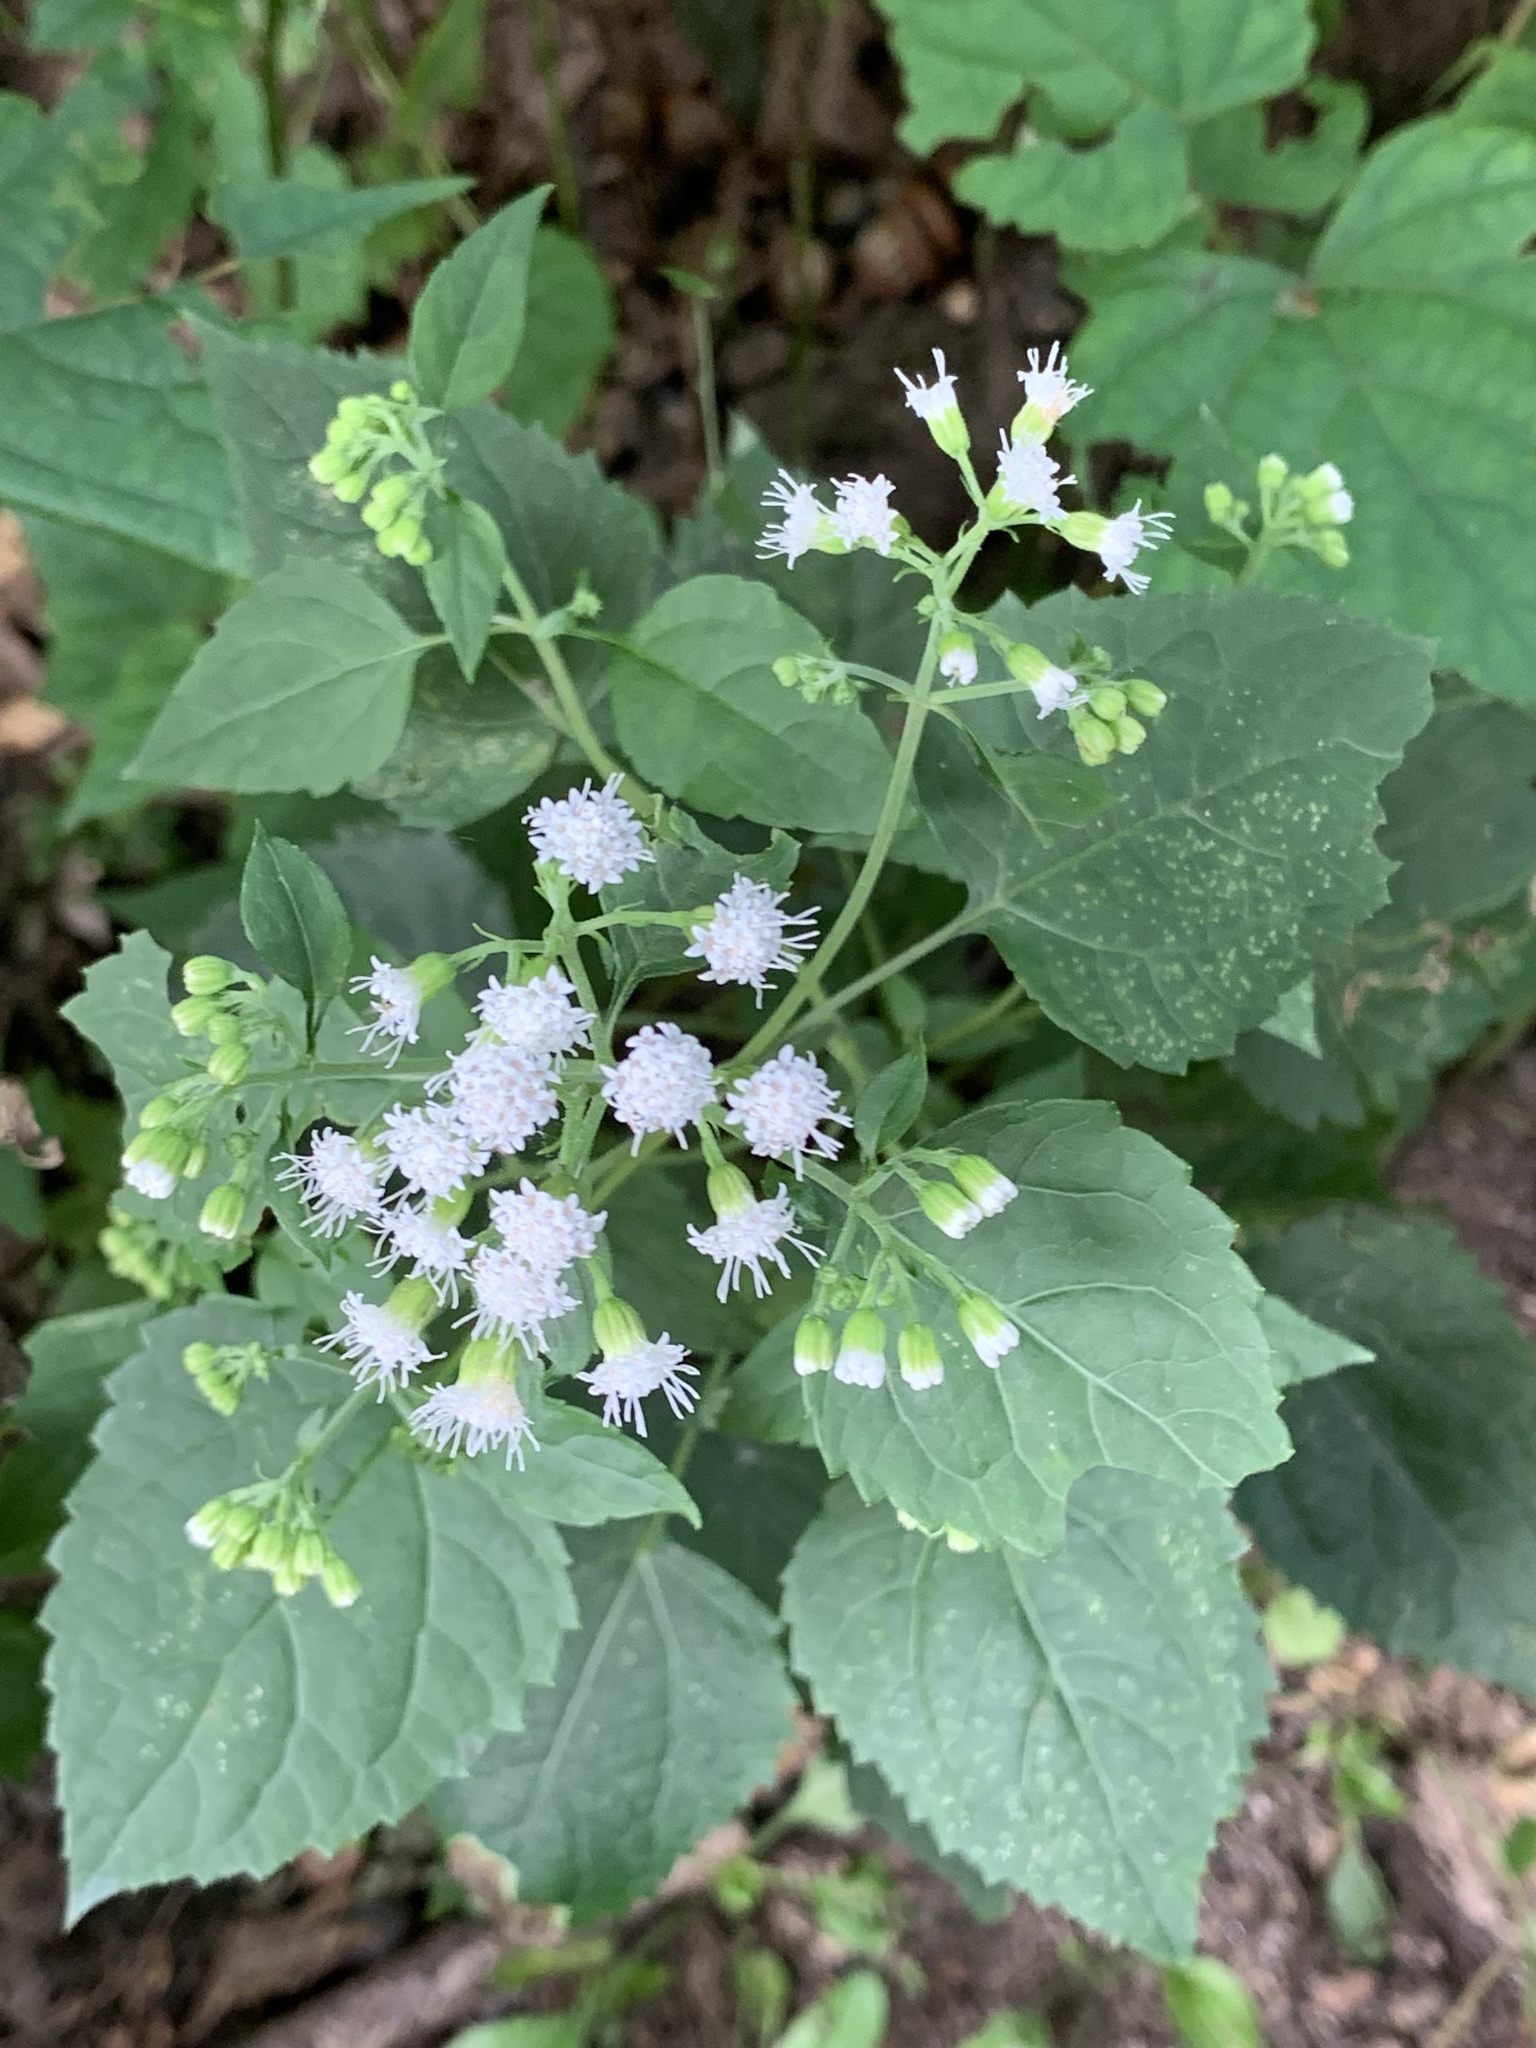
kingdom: Plantae
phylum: Tracheophyta
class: Magnoliopsida
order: Asterales
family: Asteraceae
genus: Ageratina
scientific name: Ageratina altissima
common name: White snakeroot
